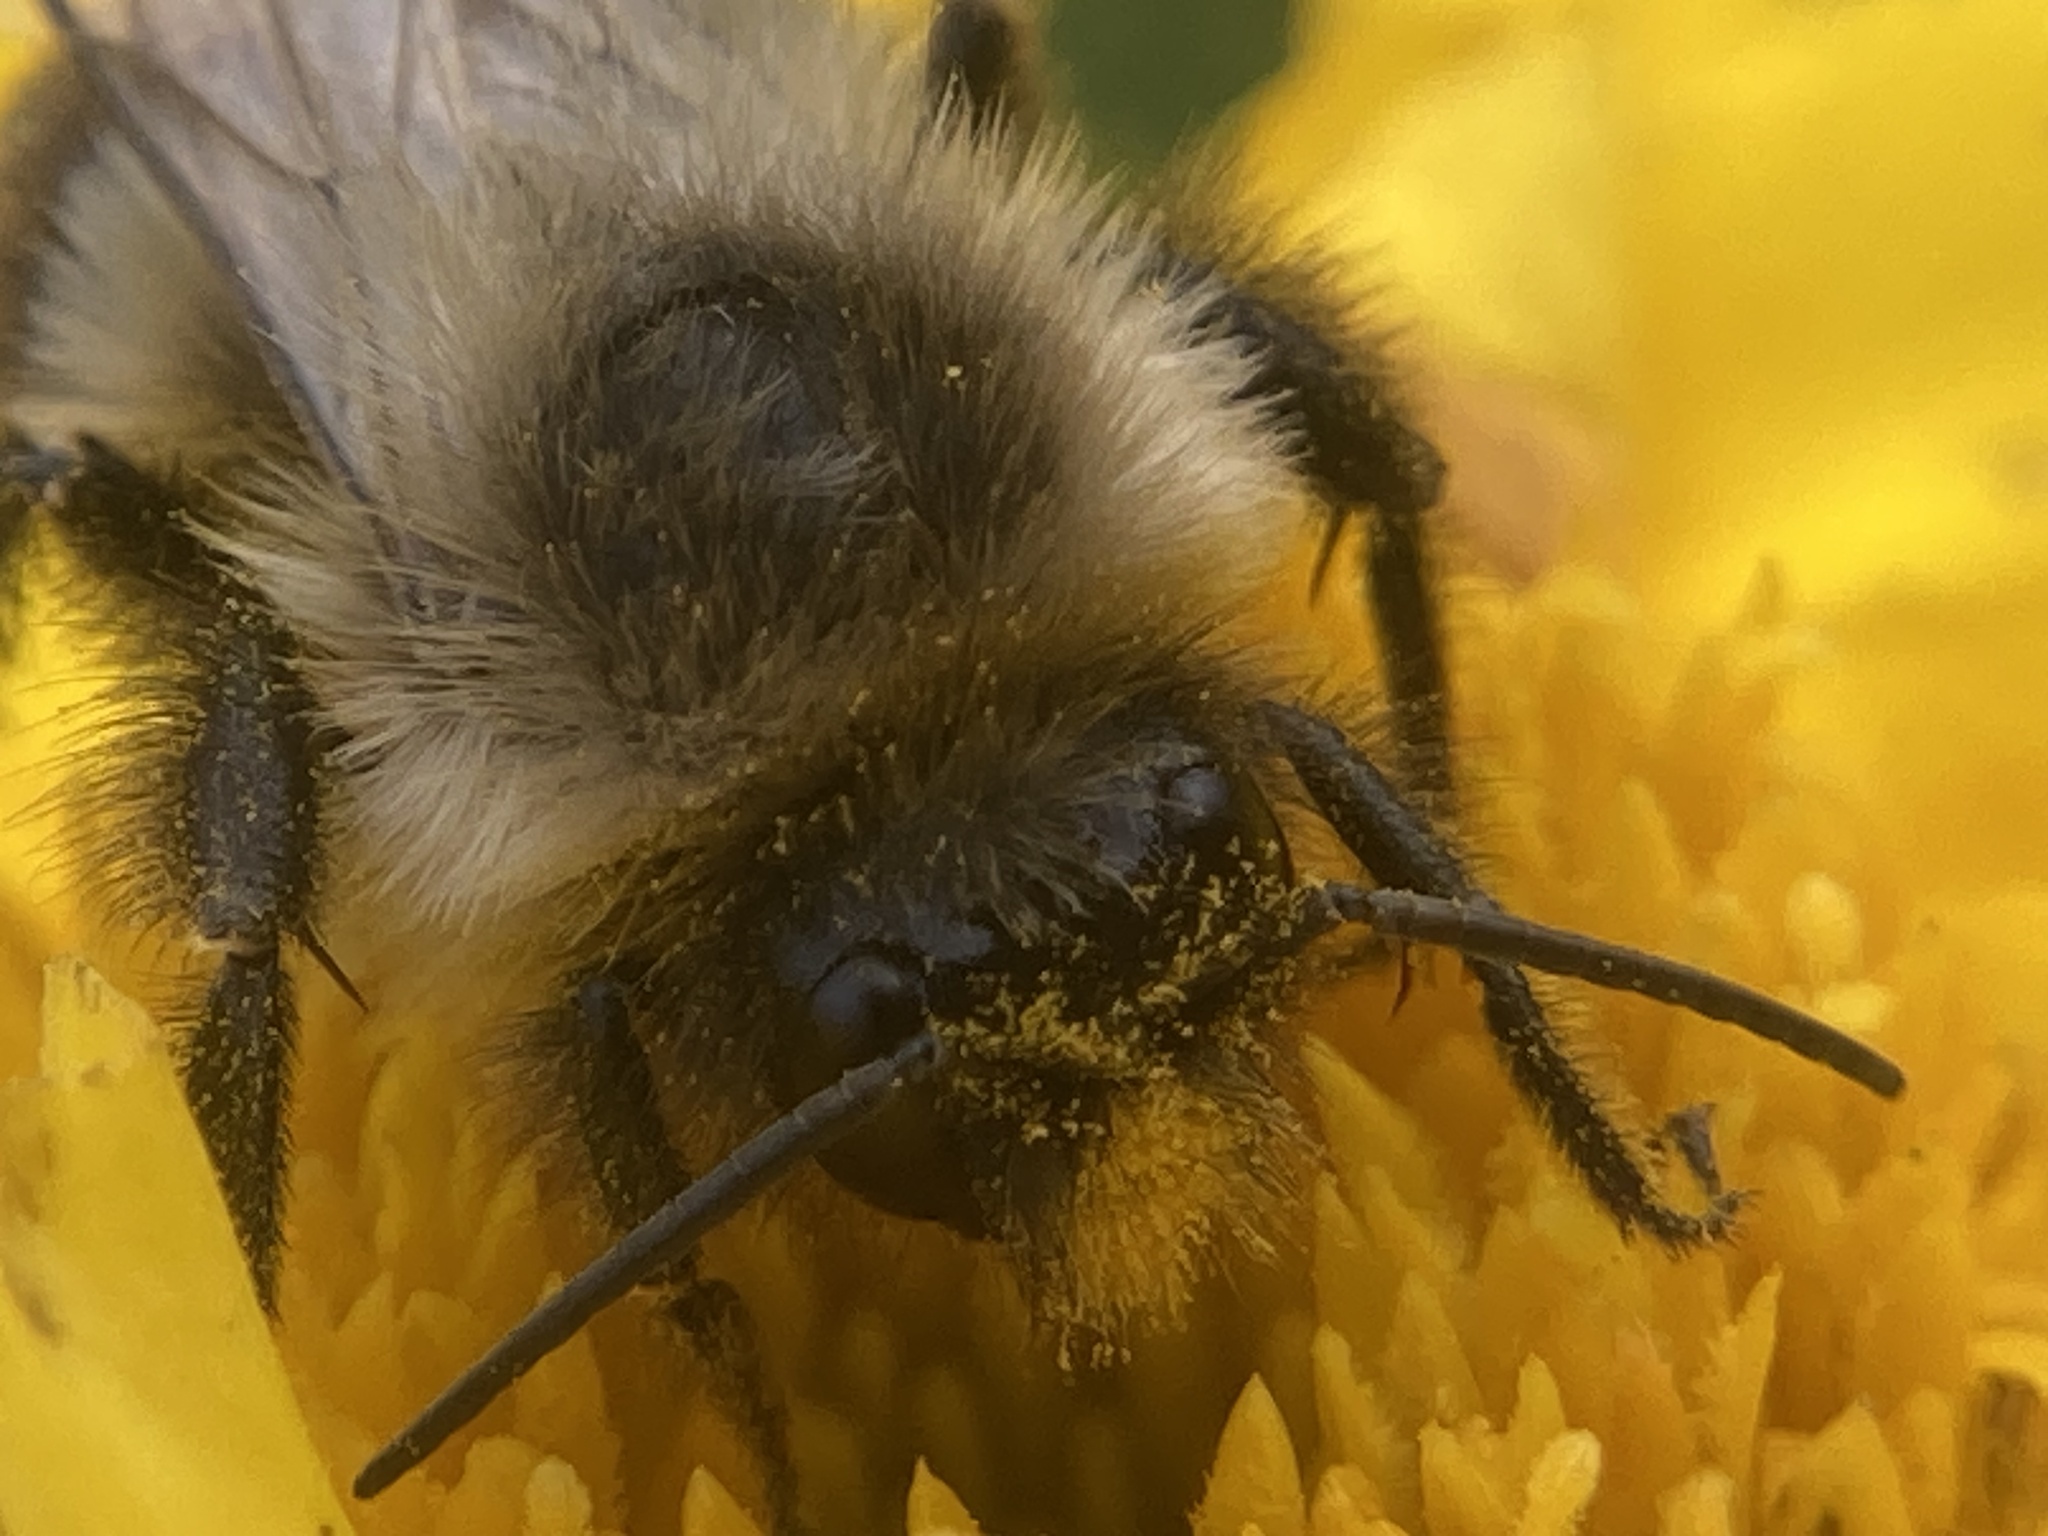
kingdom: Animalia
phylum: Arthropoda
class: Insecta
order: Hymenoptera
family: Apidae
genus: Bombus
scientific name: Bombus impatiens
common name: Common eastern bumble bee
